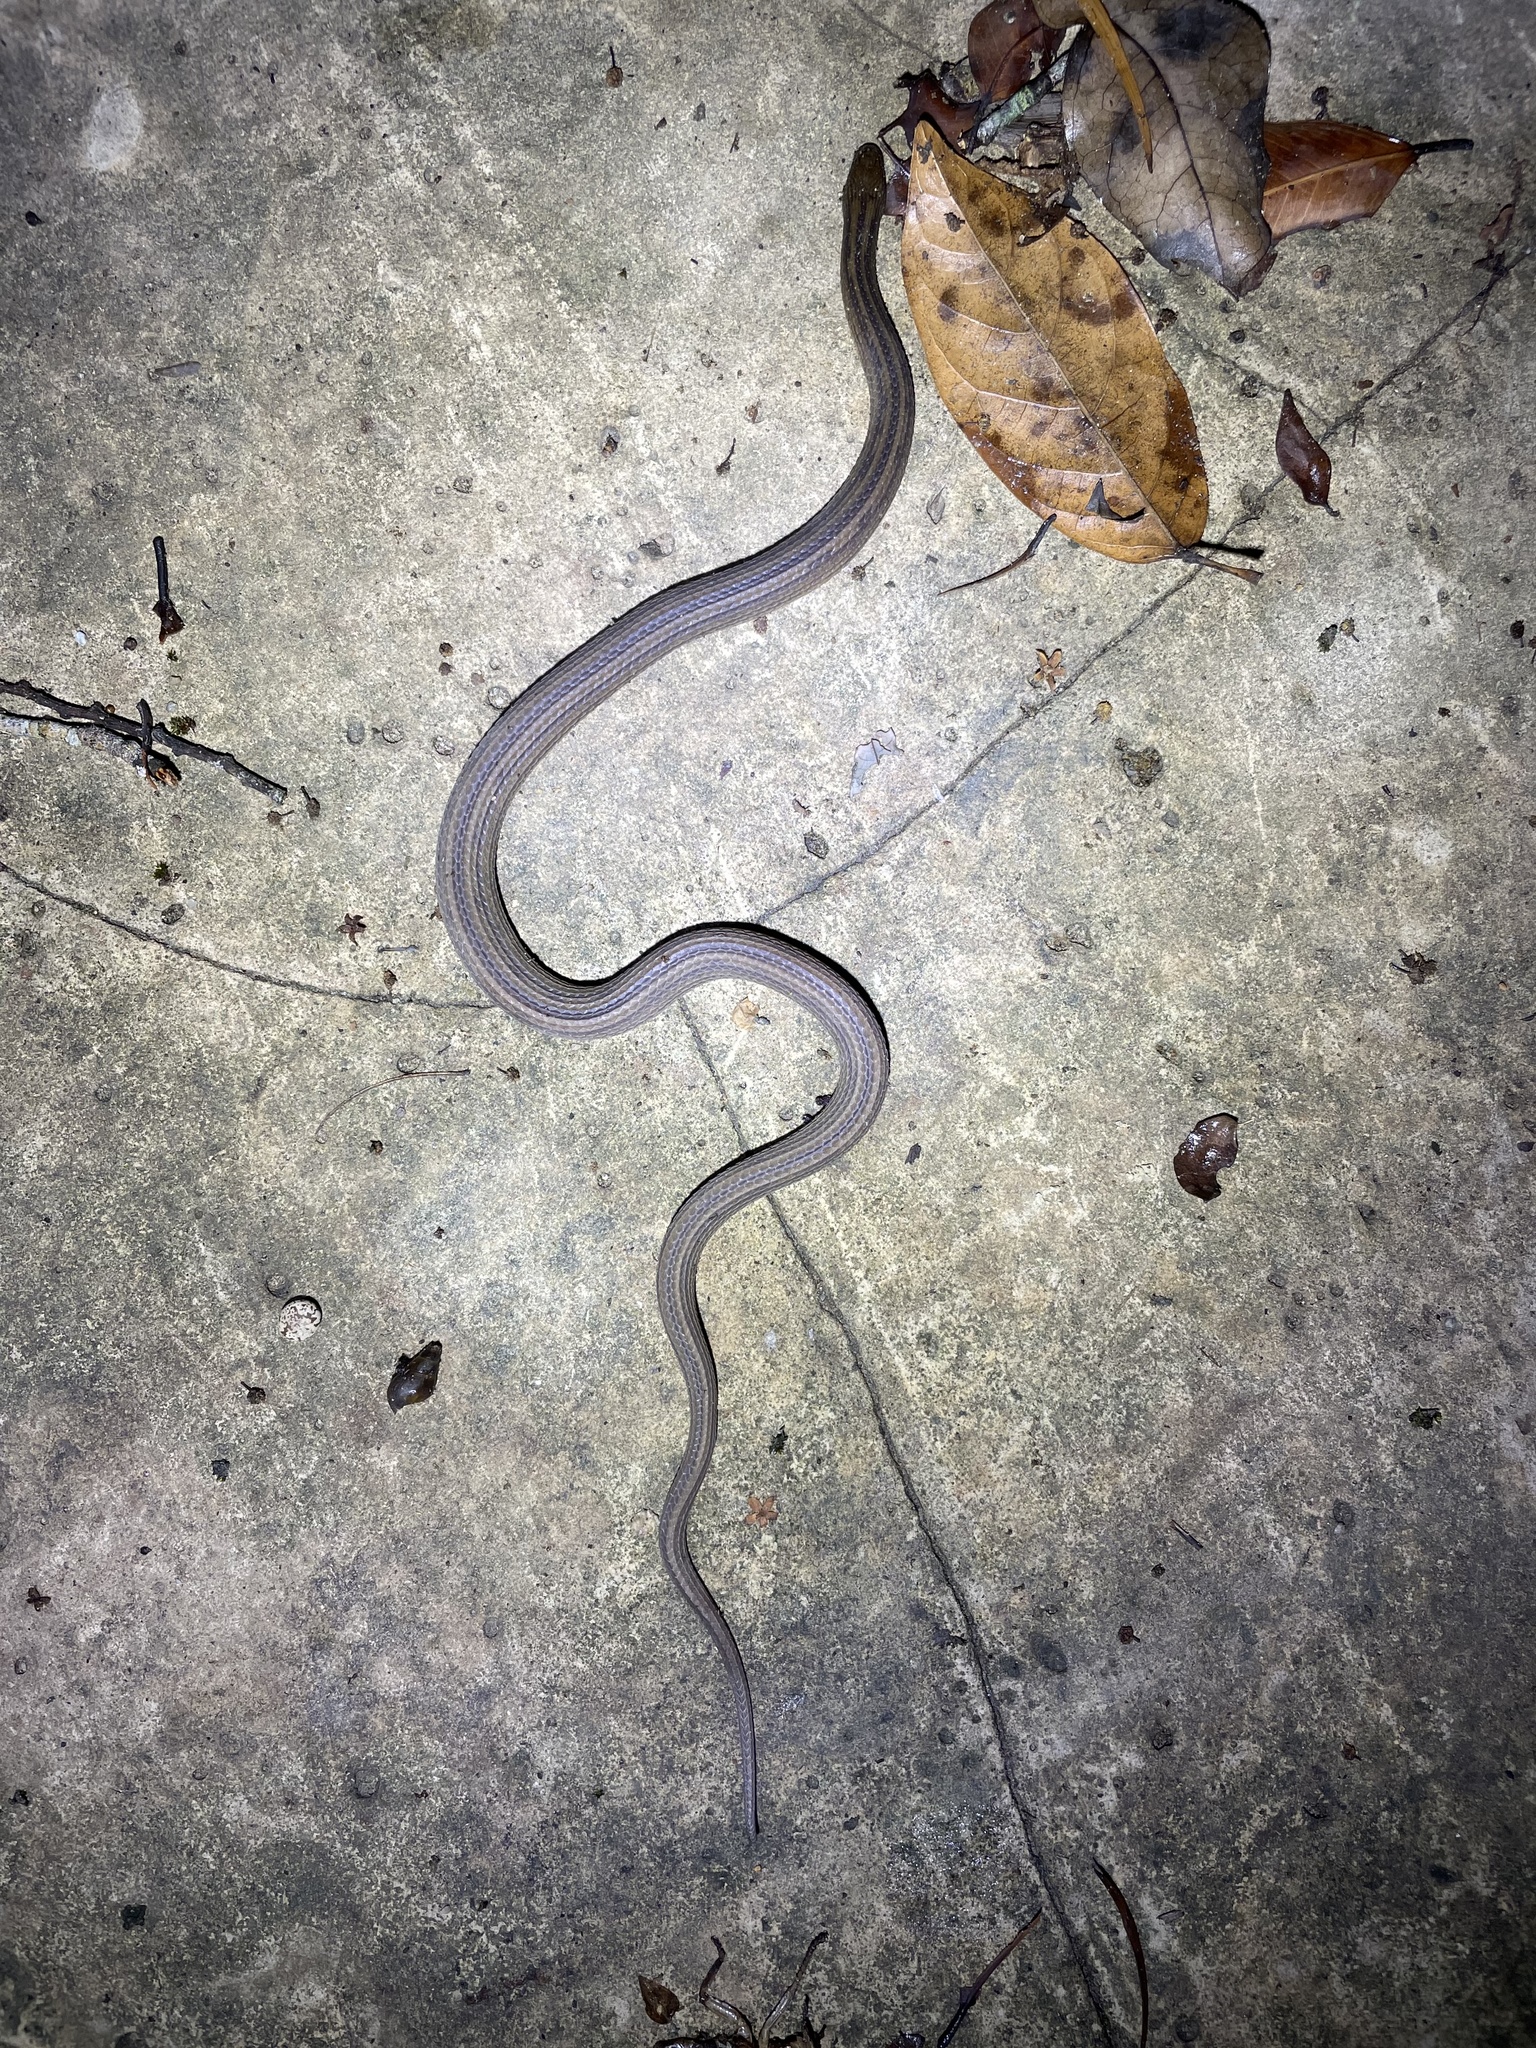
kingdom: Animalia
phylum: Chordata
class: Squamata
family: Colubridae
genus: Opisthotropis
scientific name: Opisthotropis kuatunensis
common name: Chinese mountain keelback
